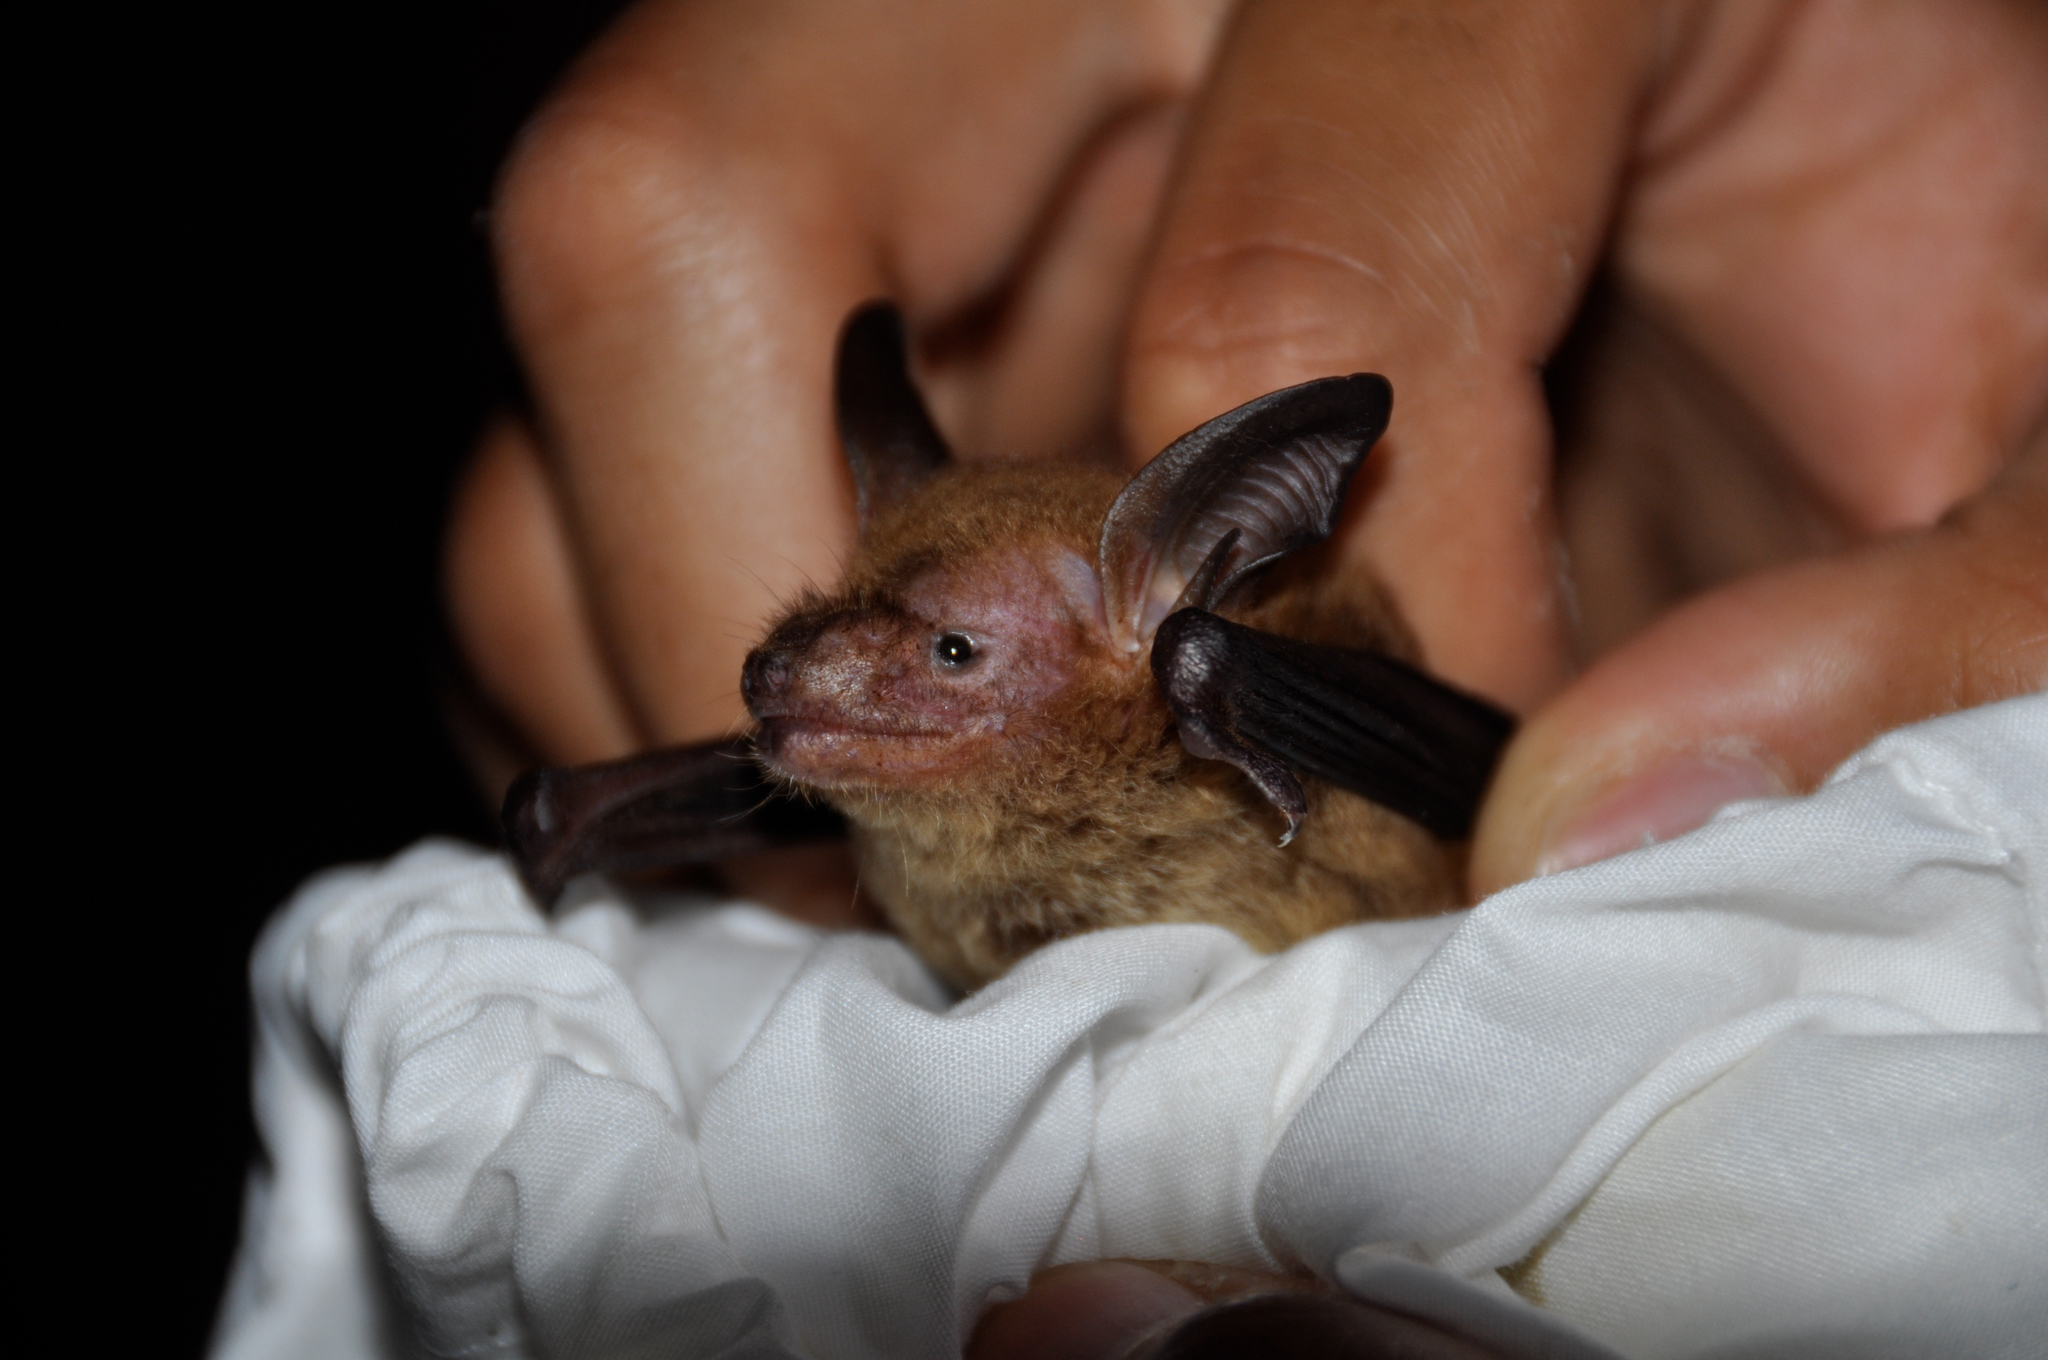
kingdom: Animalia
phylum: Chordata
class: Mammalia
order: Chiroptera
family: Vespertilionidae
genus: Bauerus
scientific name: Bauerus dubiaquercus
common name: Van gelder's bat
